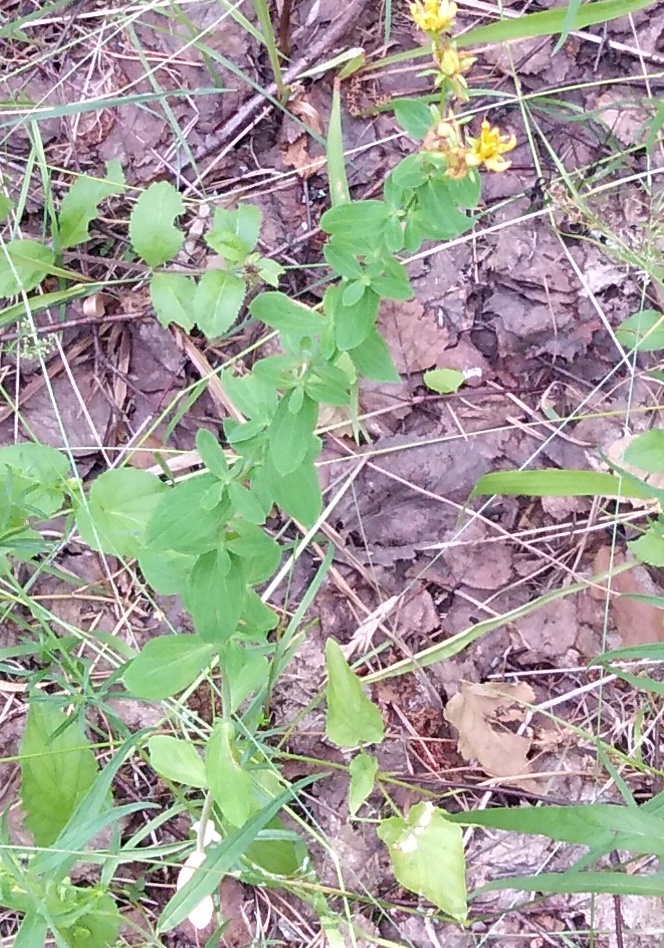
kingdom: Plantae
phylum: Tracheophyta
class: Magnoliopsida
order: Malpighiales
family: Hypericaceae
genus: Hypericum
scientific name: Hypericum perforatum
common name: Common st. johnswort
